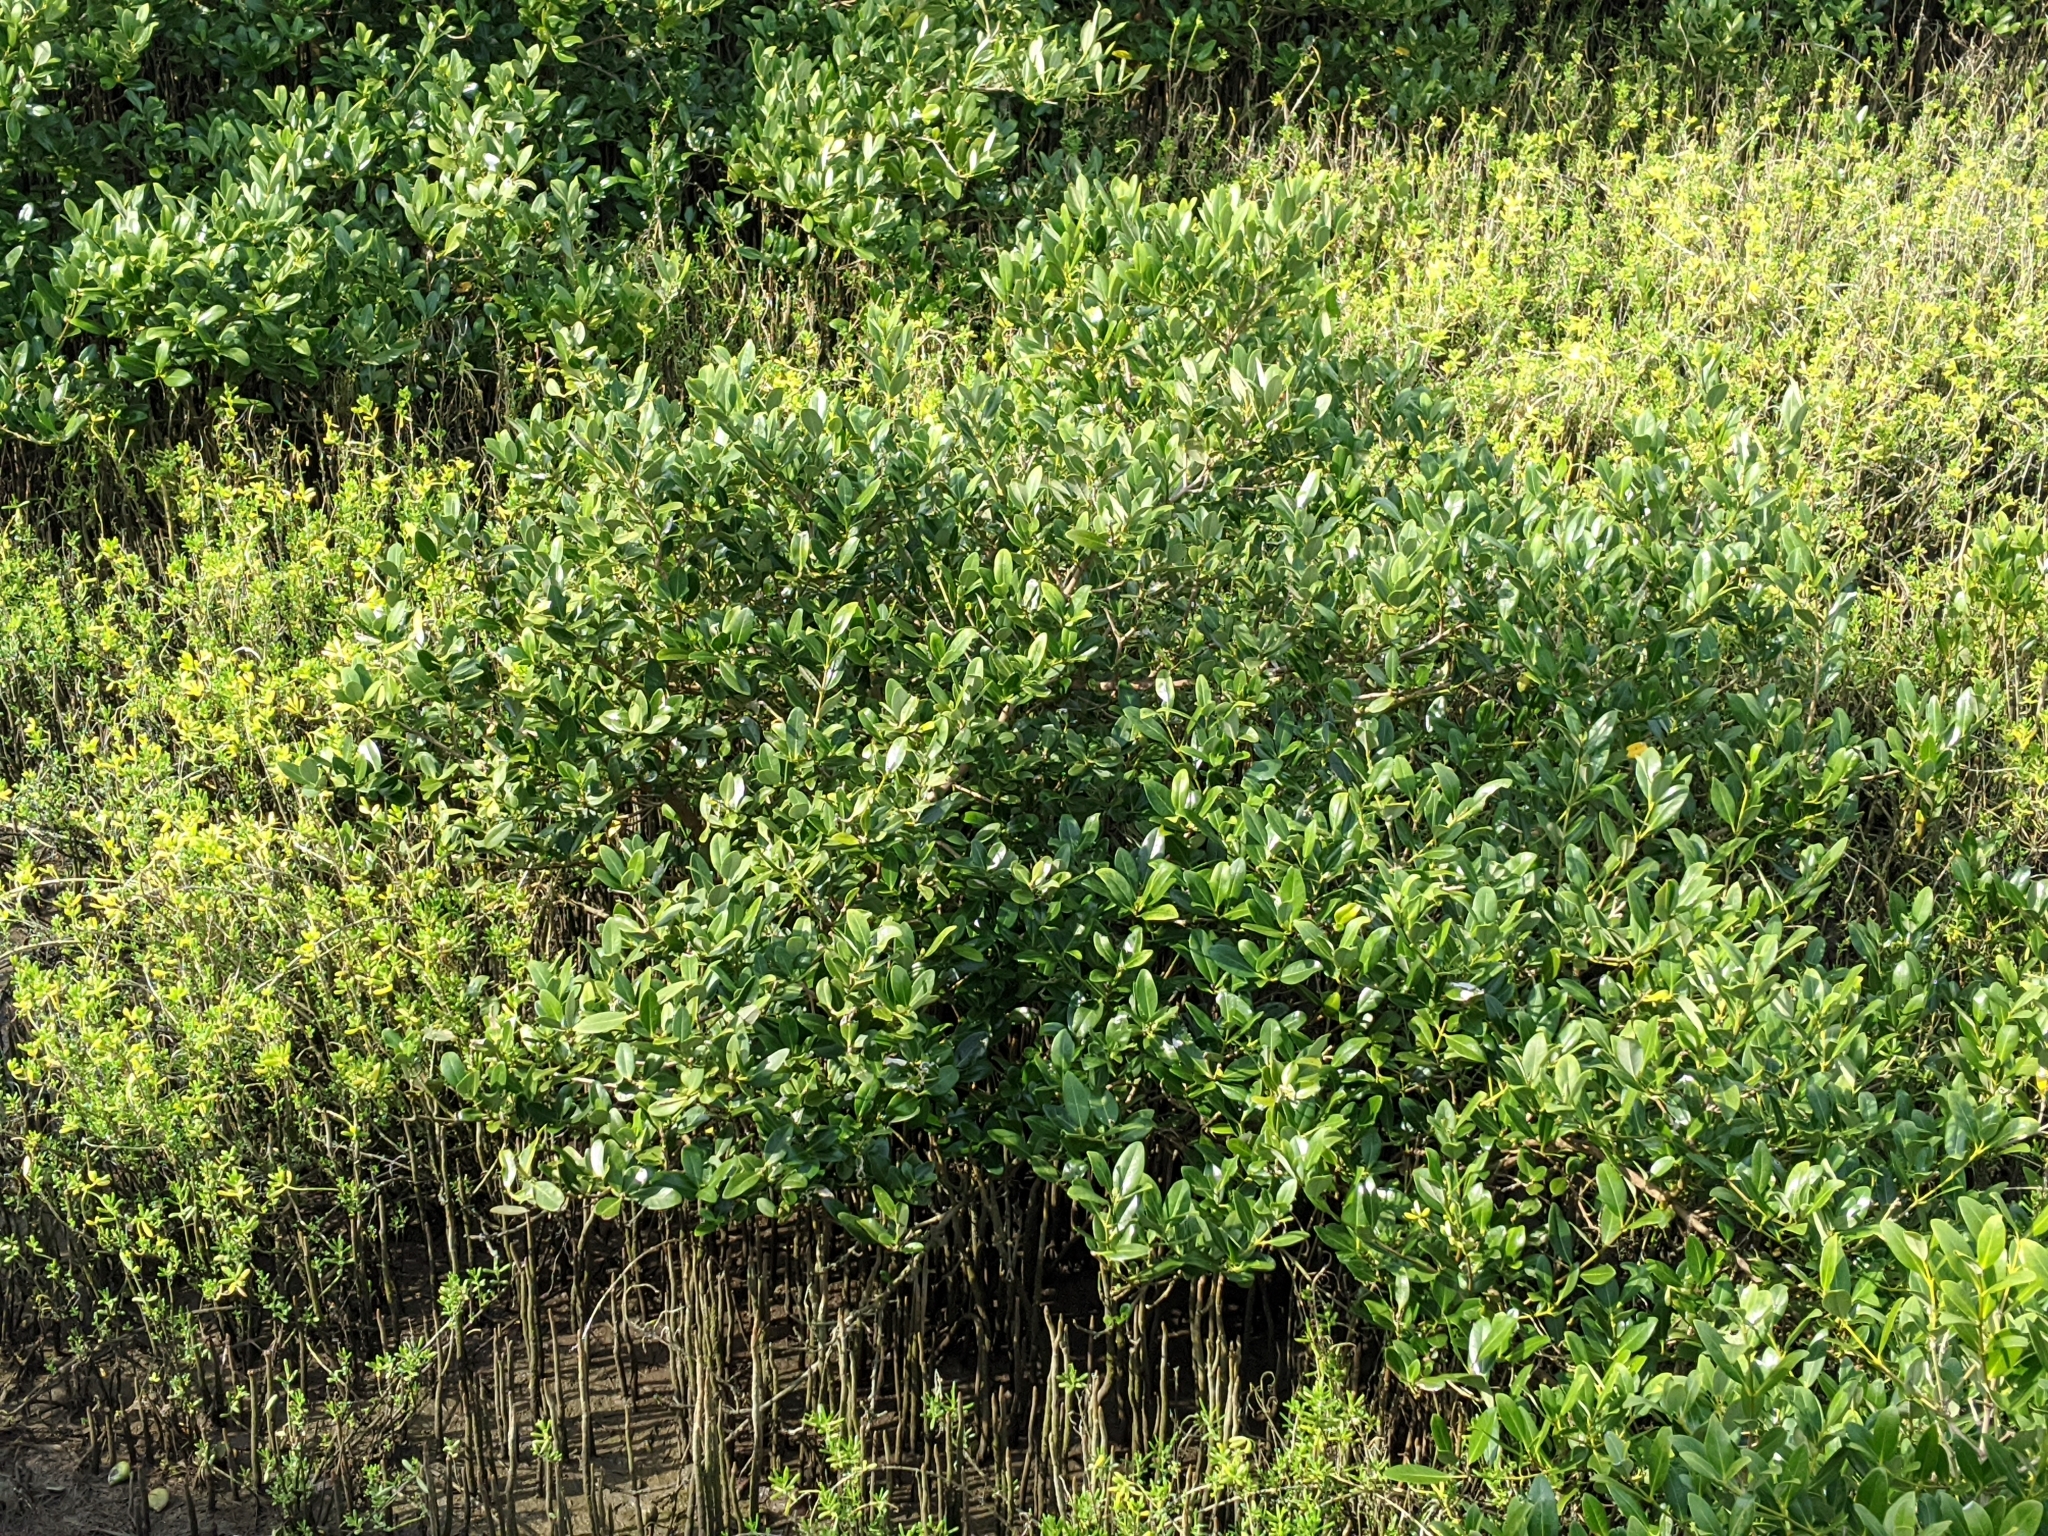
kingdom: Plantae
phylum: Tracheophyta
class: Magnoliopsida
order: Lamiales
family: Acanthaceae
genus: Avicennia
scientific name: Avicennia germinans
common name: Black mangrove
